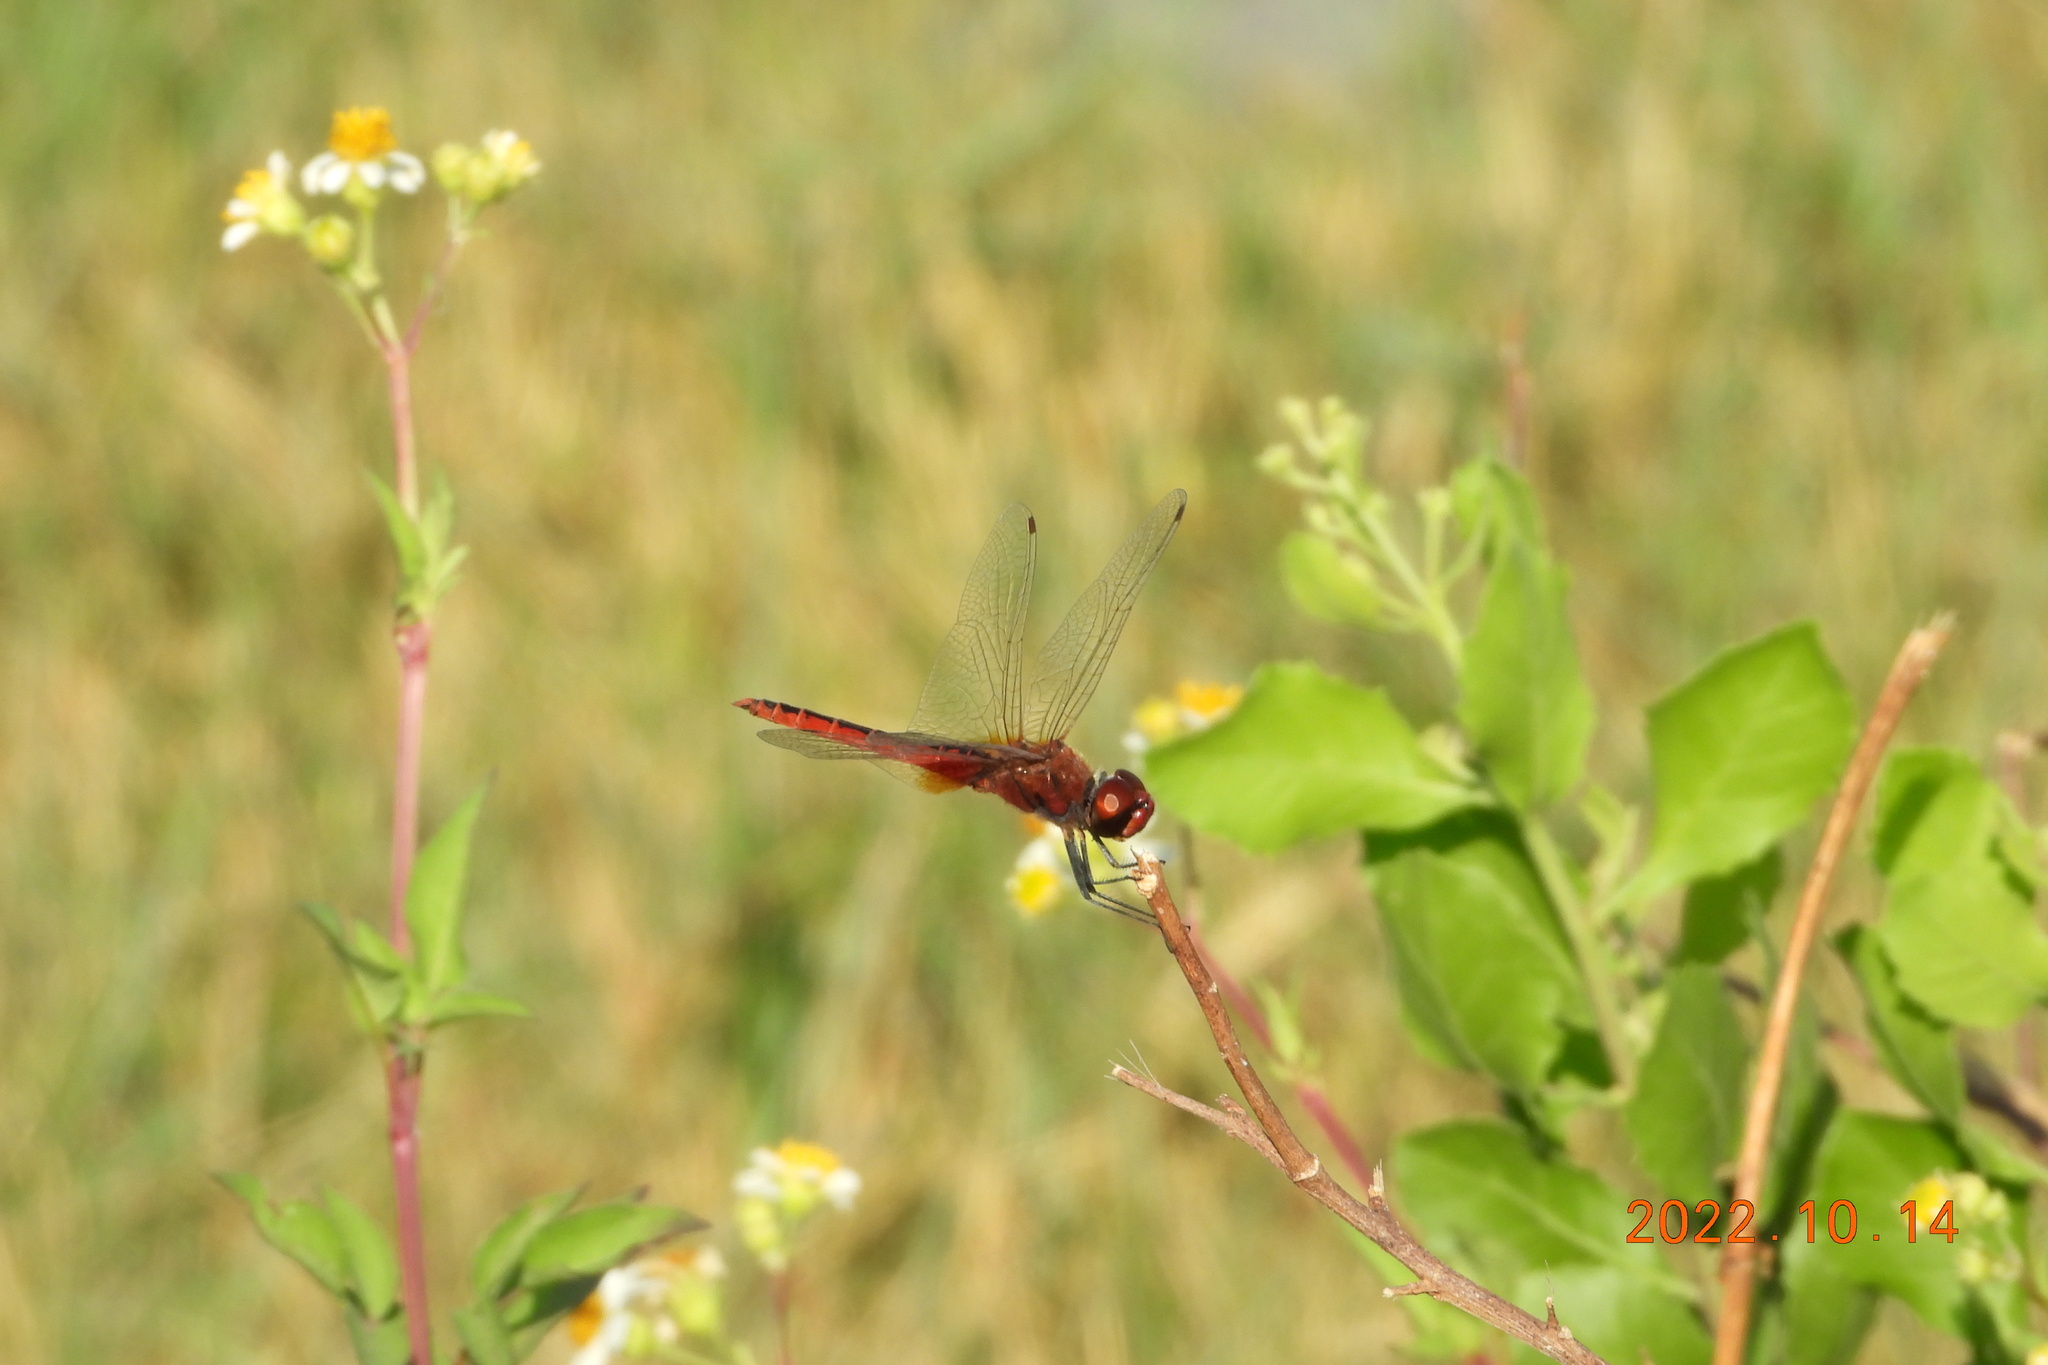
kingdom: Animalia
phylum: Arthropoda
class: Insecta
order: Odonata
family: Libellulidae
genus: Macrodiplax
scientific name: Macrodiplax cora
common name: Coastal glider
